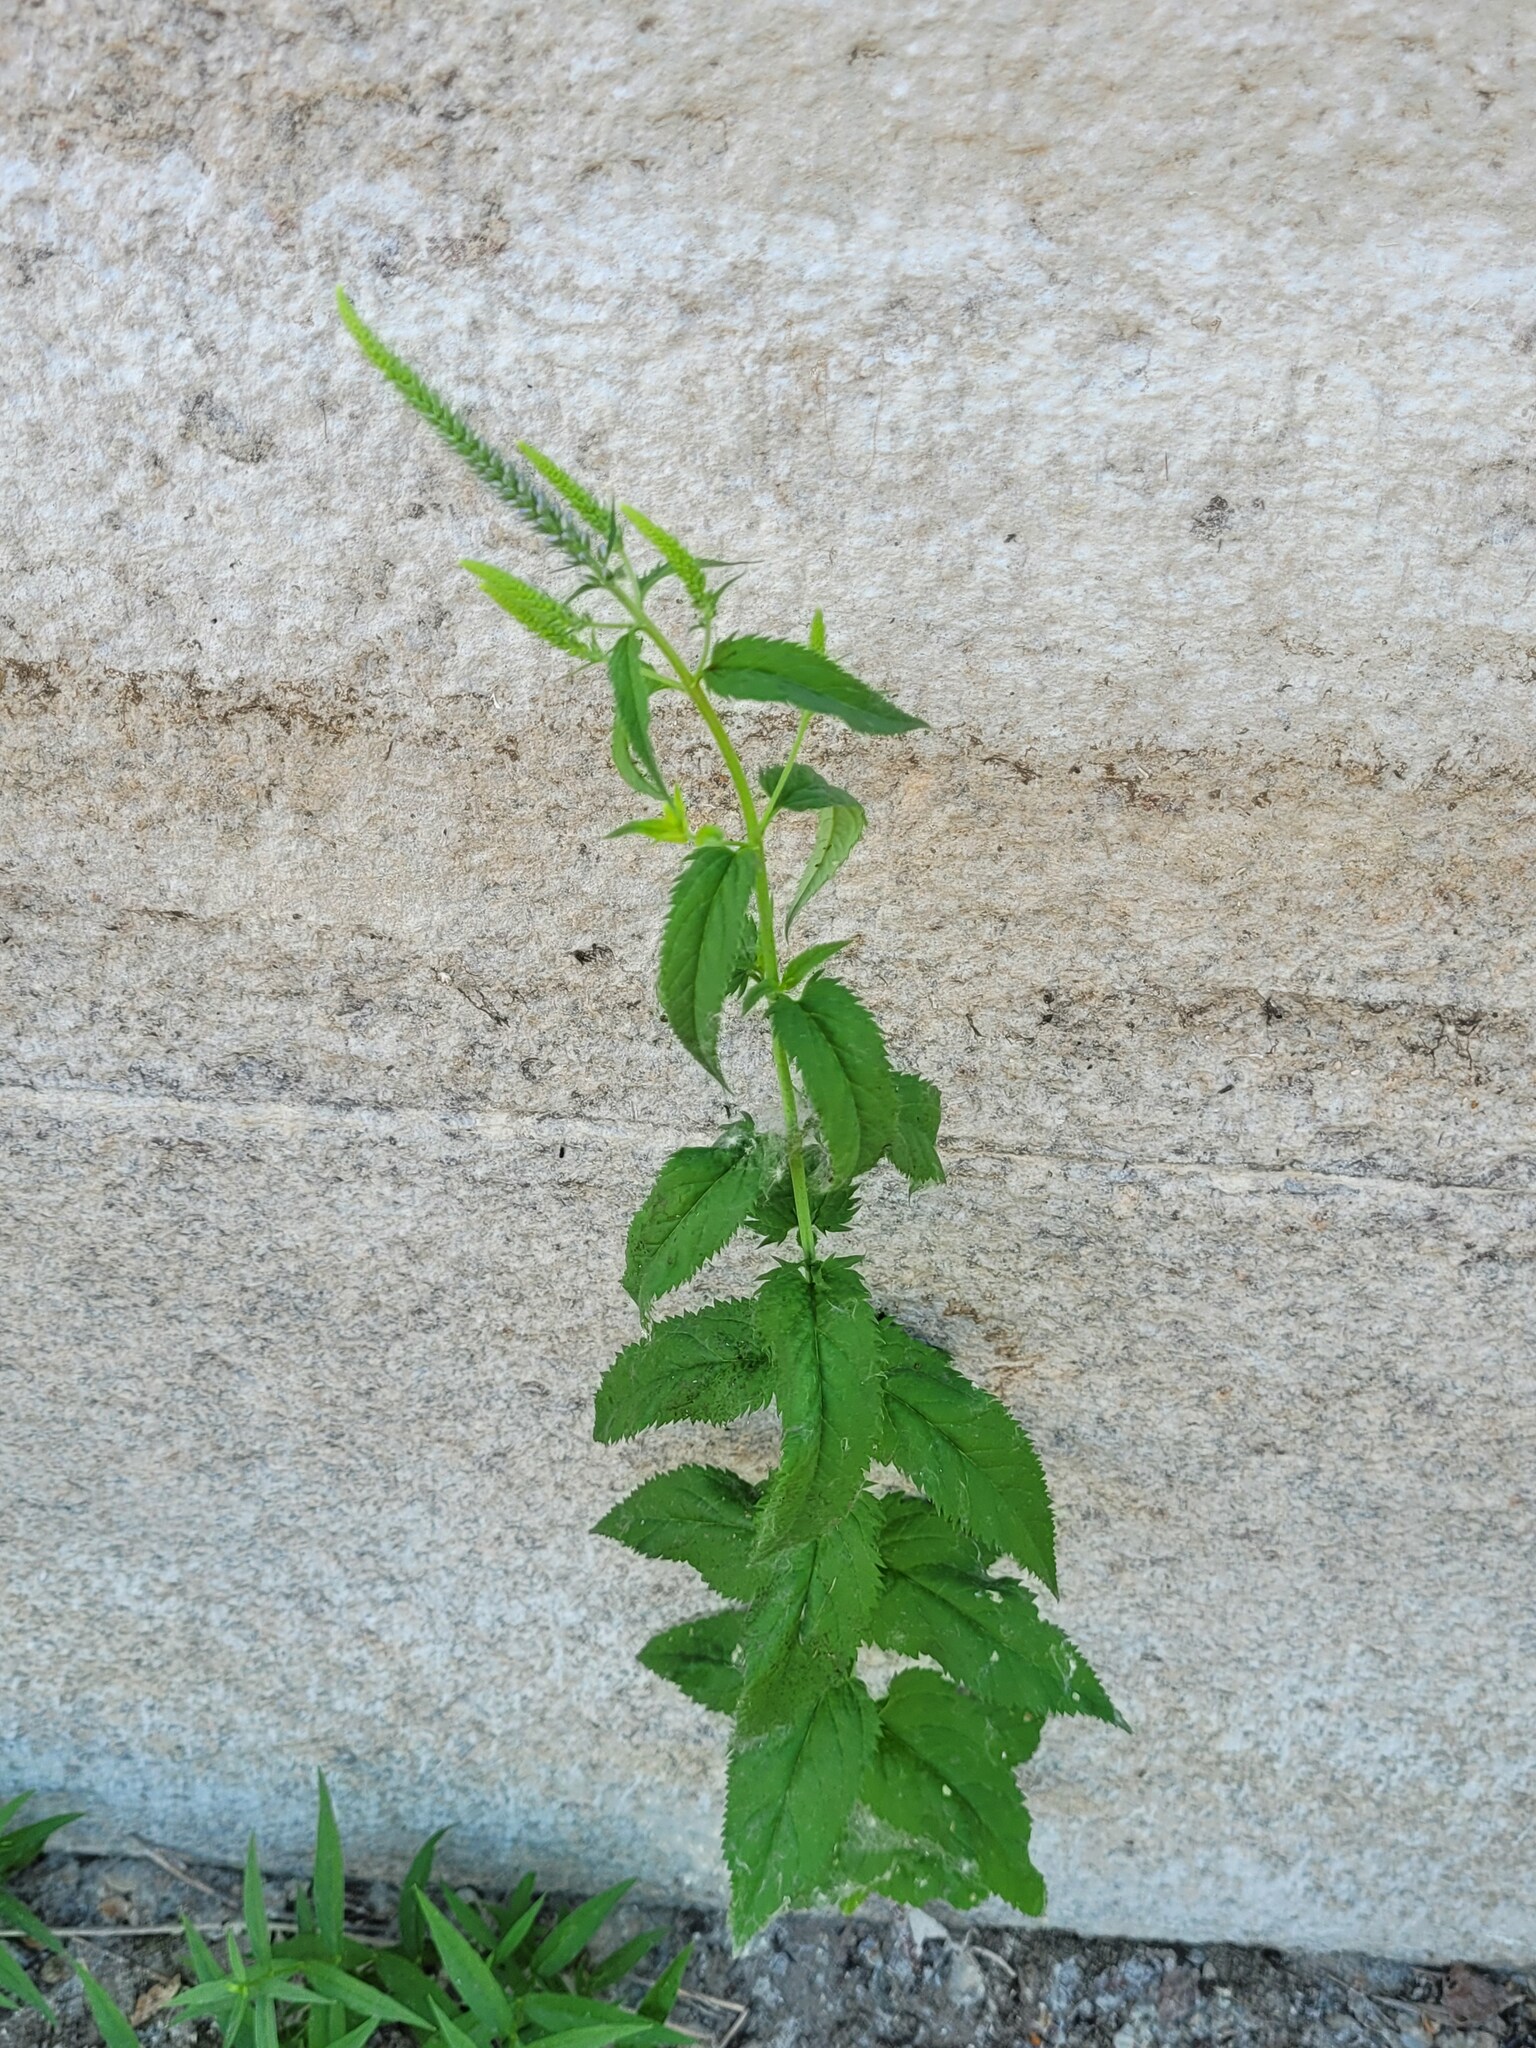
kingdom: Plantae
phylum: Tracheophyta
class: Magnoliopsida
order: Lamiales
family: Plantaginaceae
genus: Veronica
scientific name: Veronica longifolia
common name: Garden speedwell
